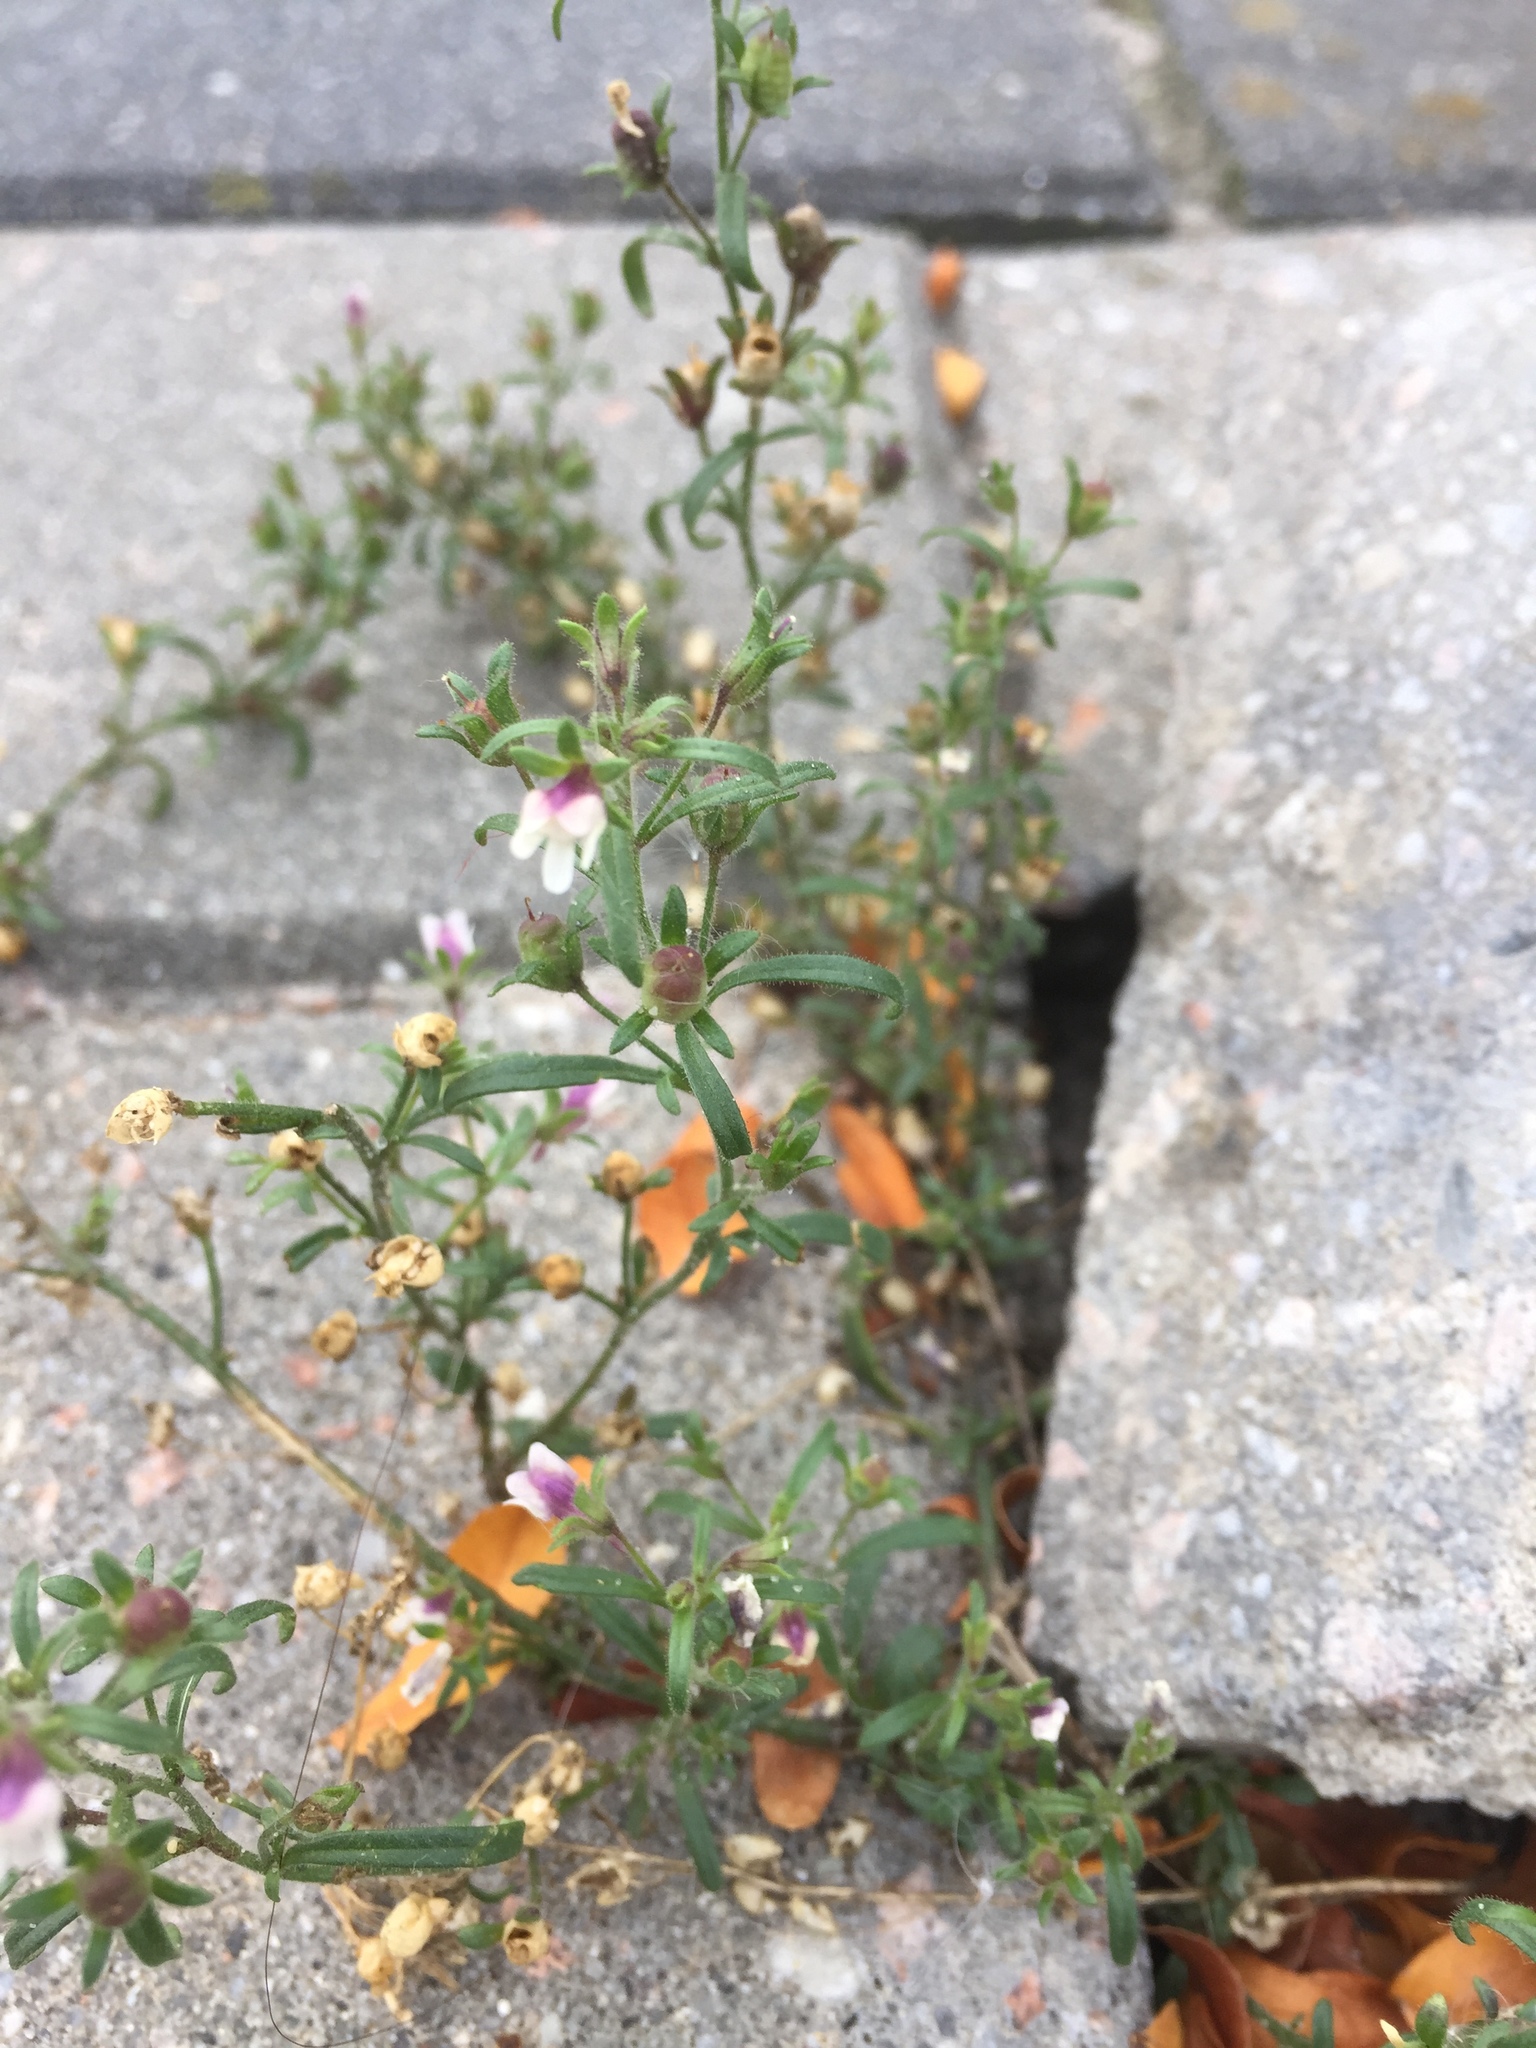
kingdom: Plantae
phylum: Tracheophyta
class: Magnoliopsida
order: Lamiales
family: Plantaginaceae
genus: Chaenorhinum
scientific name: Chaenorhinum minus
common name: Dwarf snapdragon
